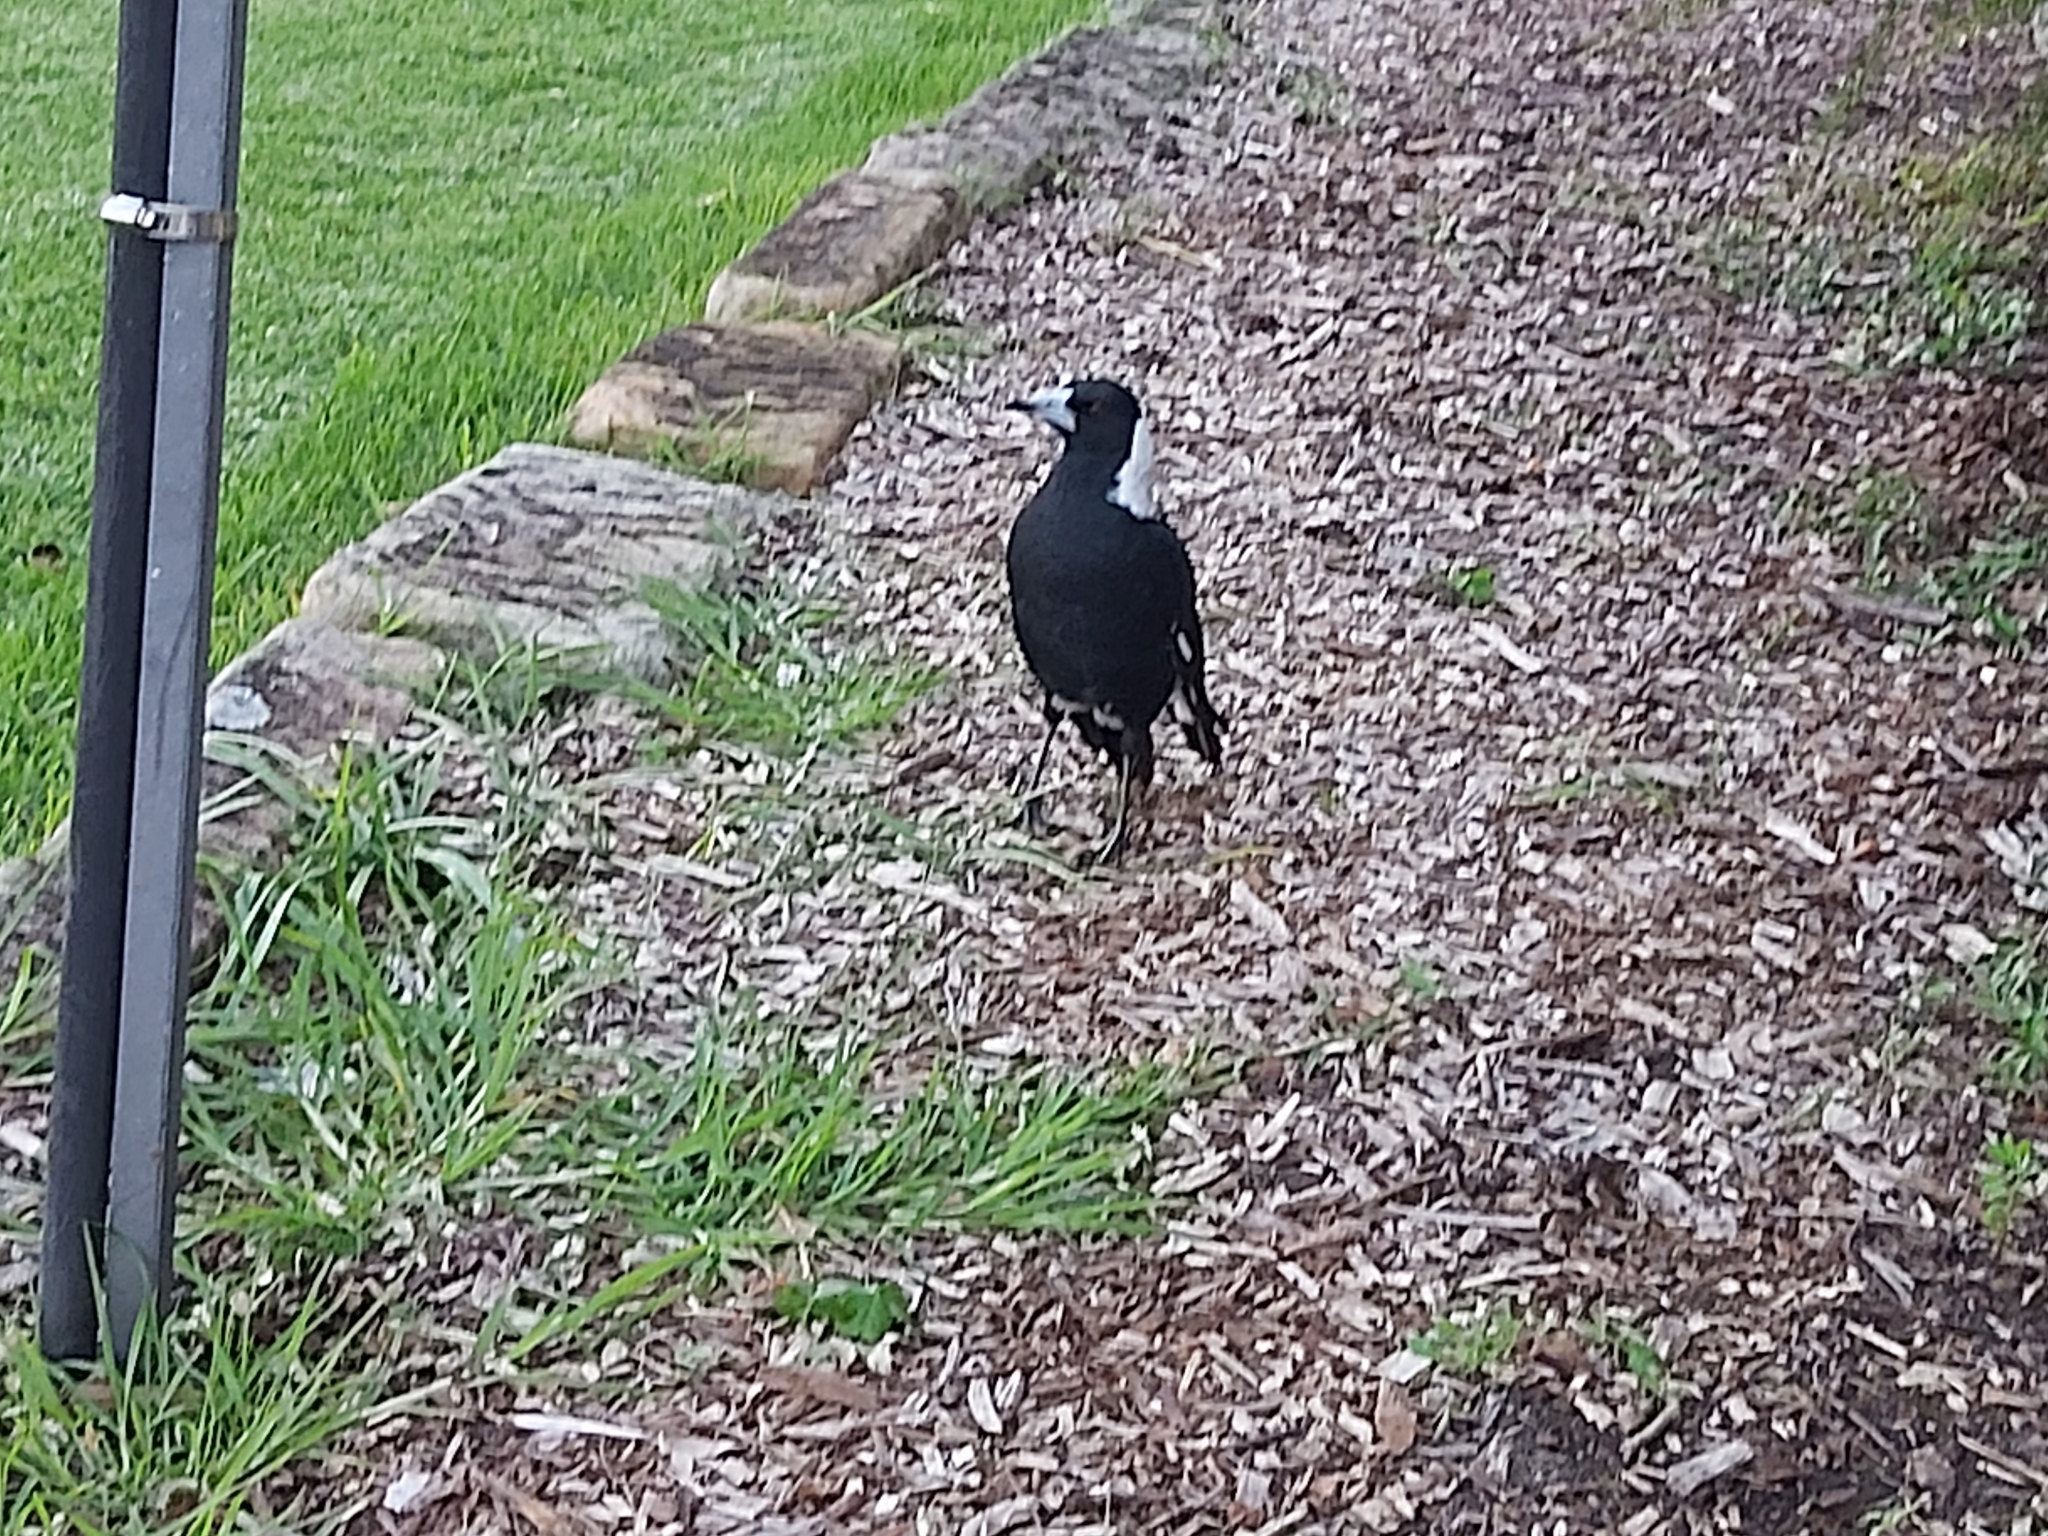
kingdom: Animalia
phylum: Chordata
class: Aves
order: Passeriformes
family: Cracticidae
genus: Gymnorhina
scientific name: Gymnorhina tibicen
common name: Australian magpie
